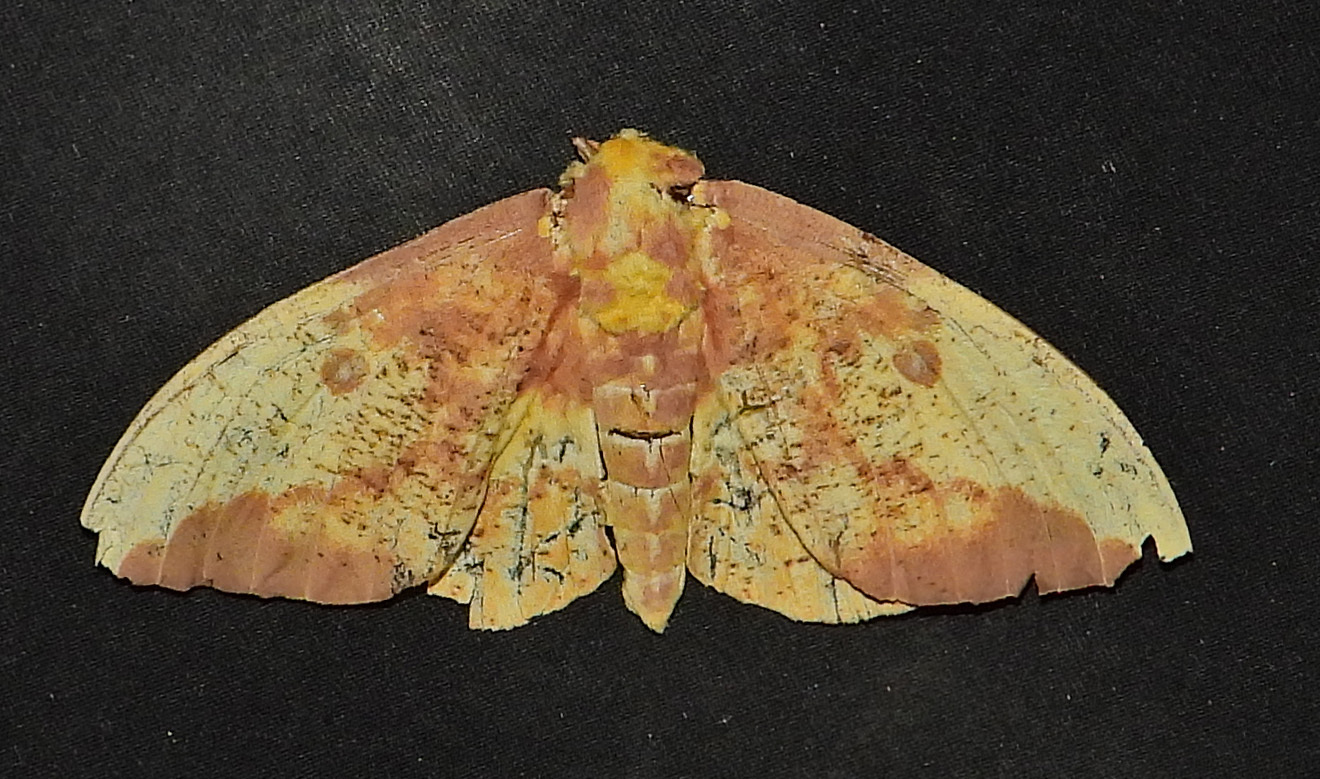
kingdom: Animalia
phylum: Arthropoda
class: Insecta
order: Lepidoptera
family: Saturniidae
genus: Eacles
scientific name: Eacles imperialis
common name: Imperial moth
